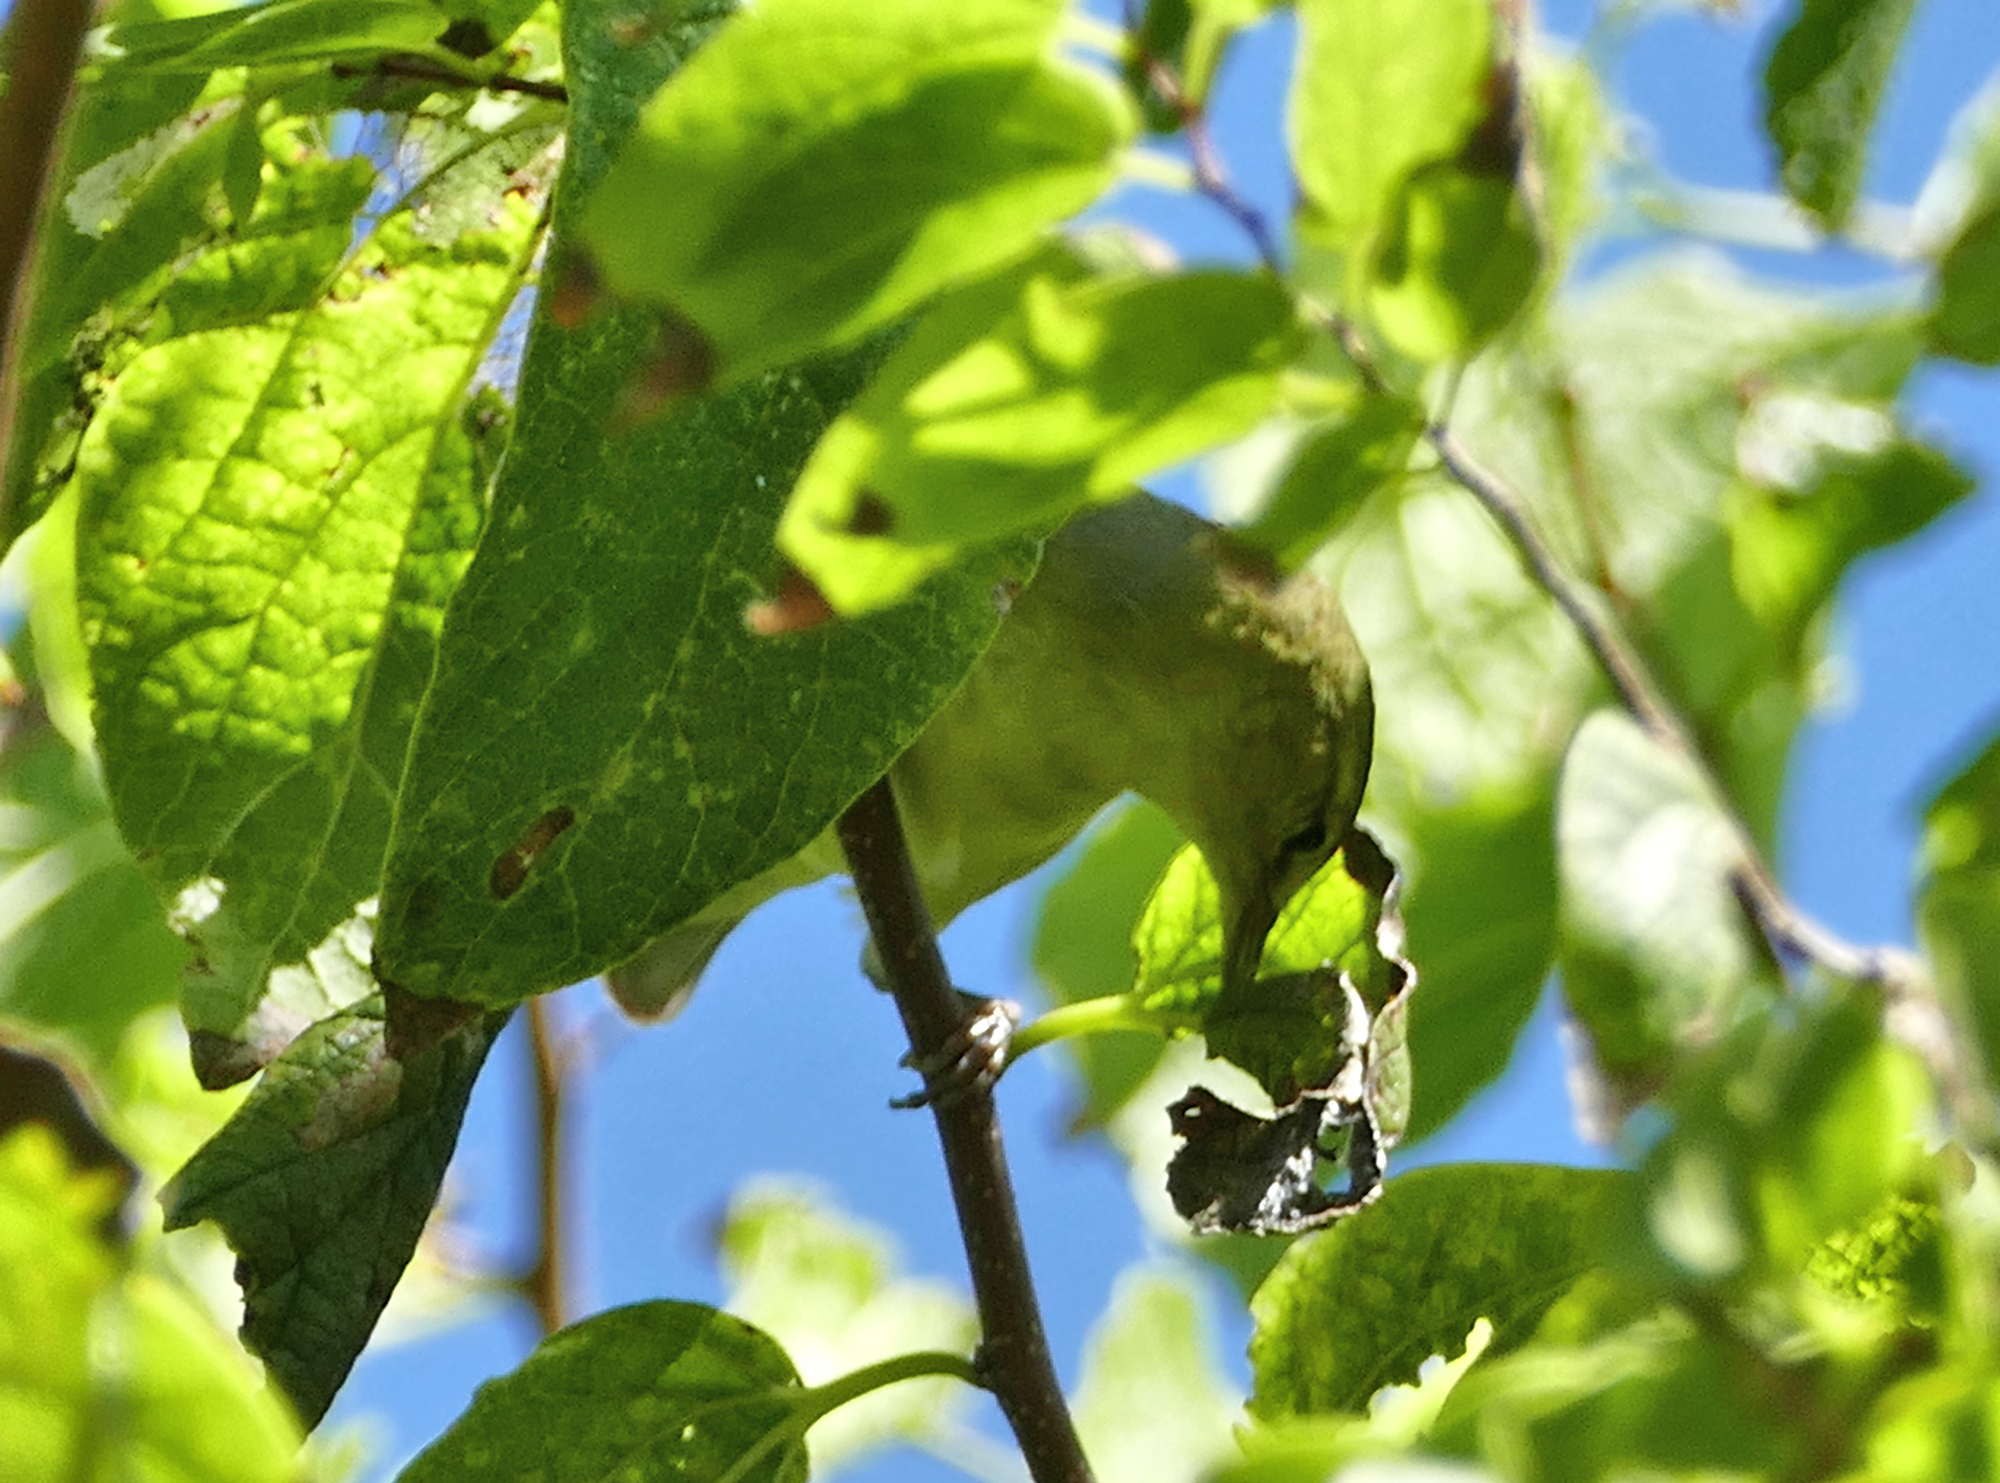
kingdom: Animalia
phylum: Chordata
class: Aves
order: Passeriformes
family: Parulidae
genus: Leiothlypis
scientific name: Leiothlypis peregrina
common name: Tennessee warbler
